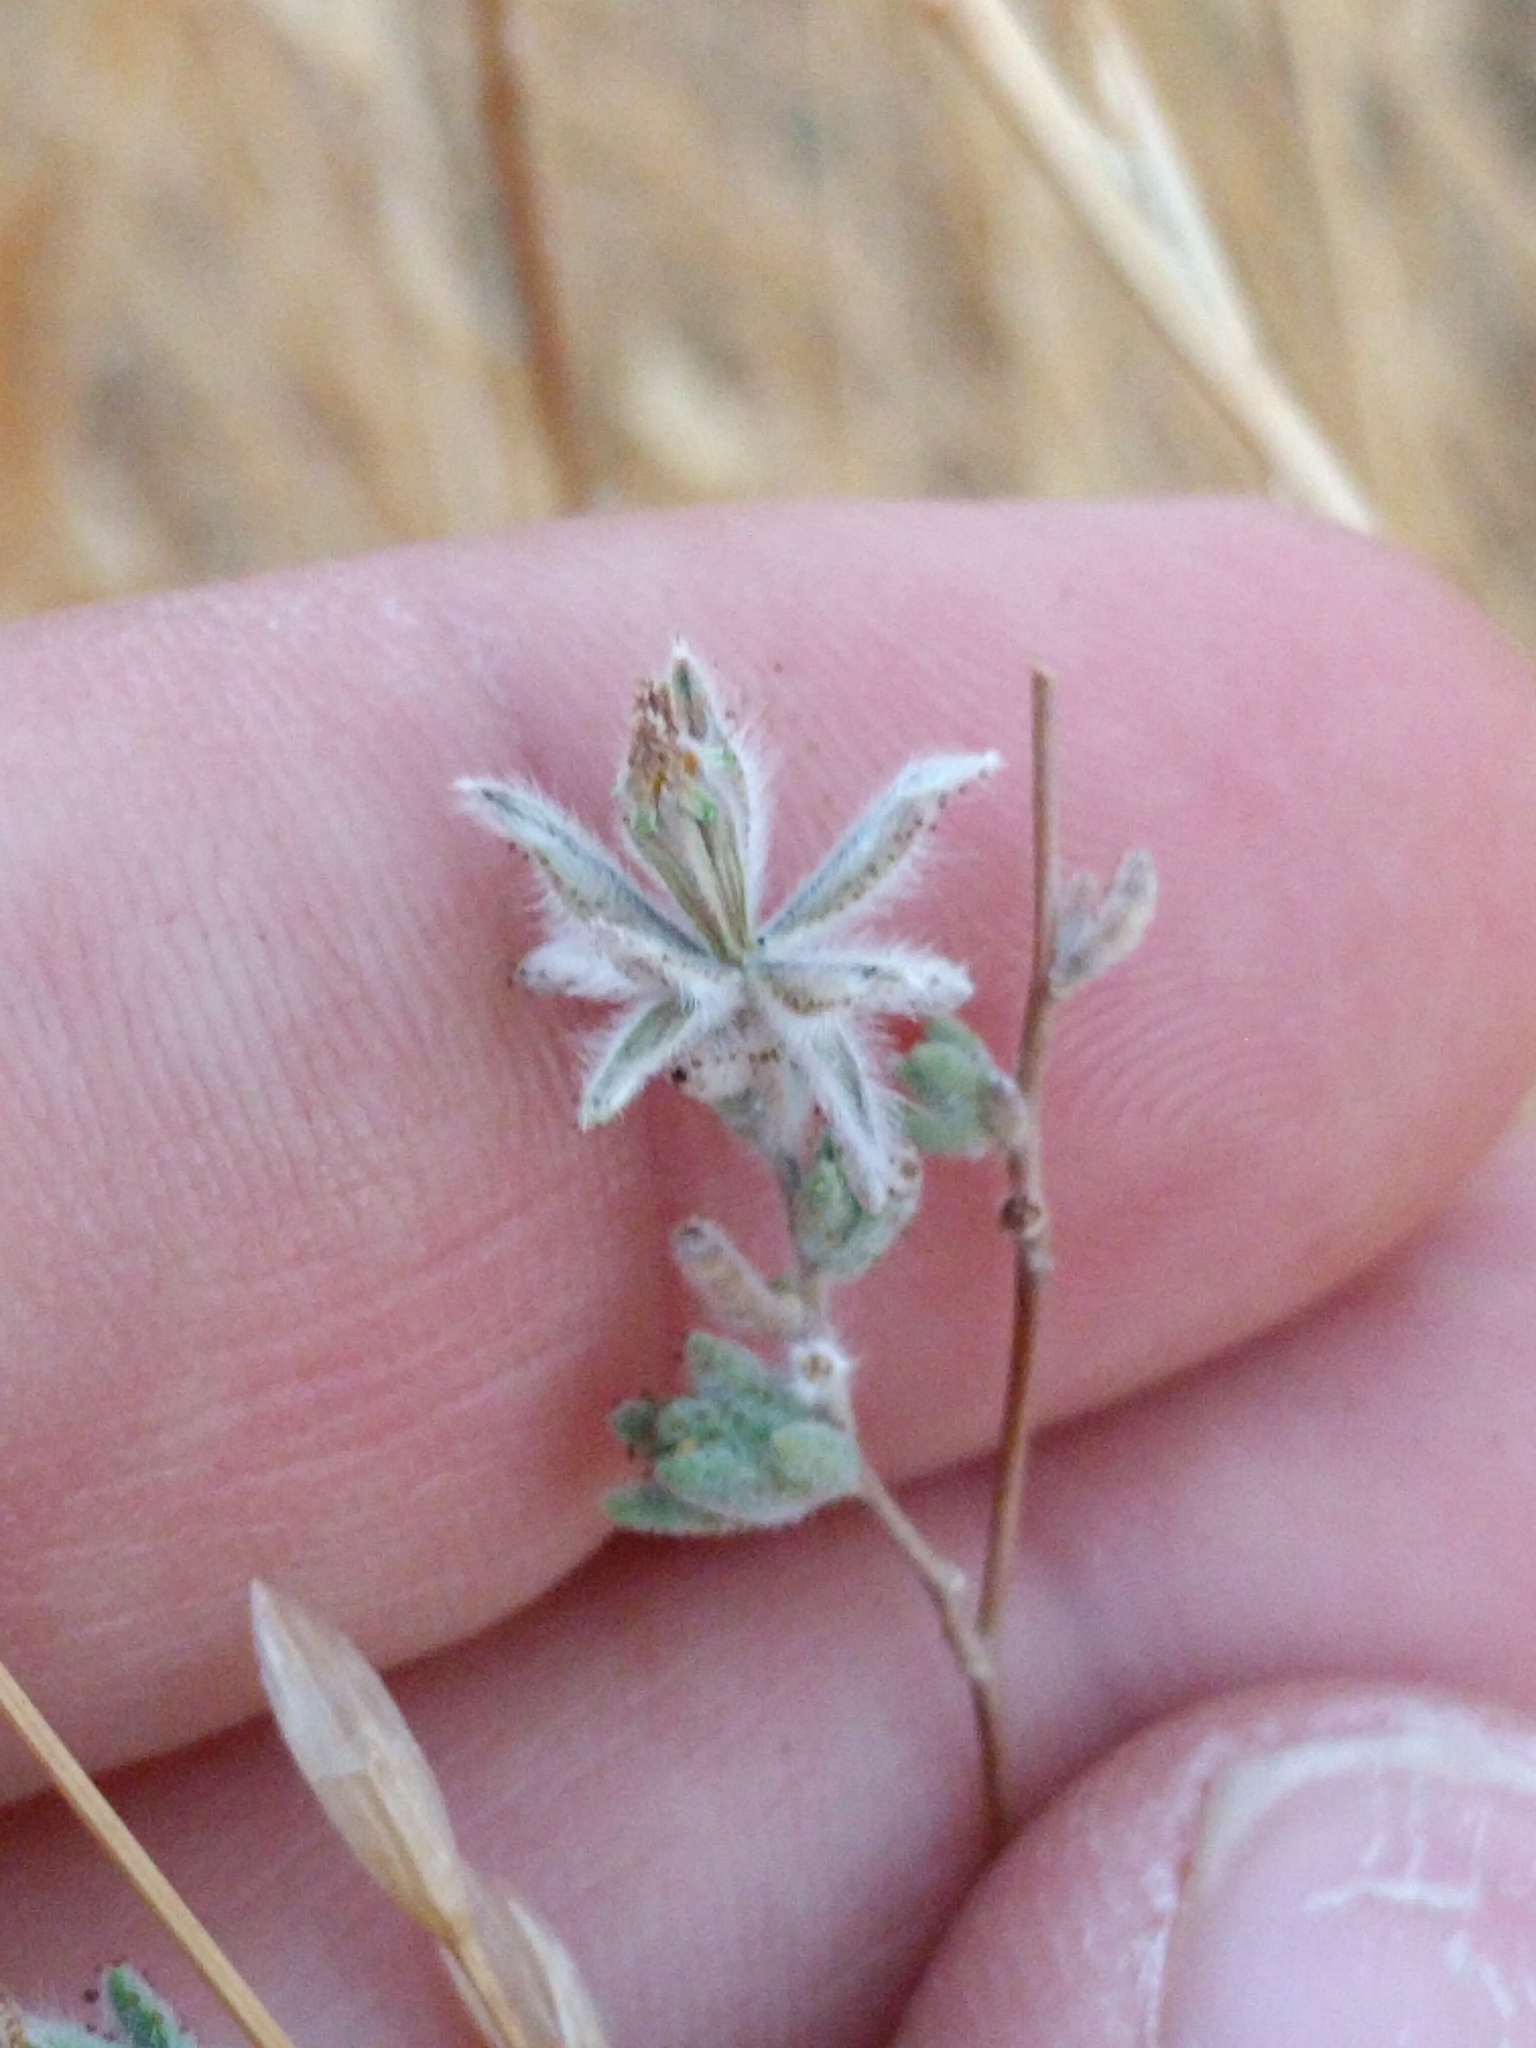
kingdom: Plantae
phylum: Tracheophyta
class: Magnoliopsida
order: Asterales
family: Asteraceae
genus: Lagophylla
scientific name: Lagophylla ramosissima
